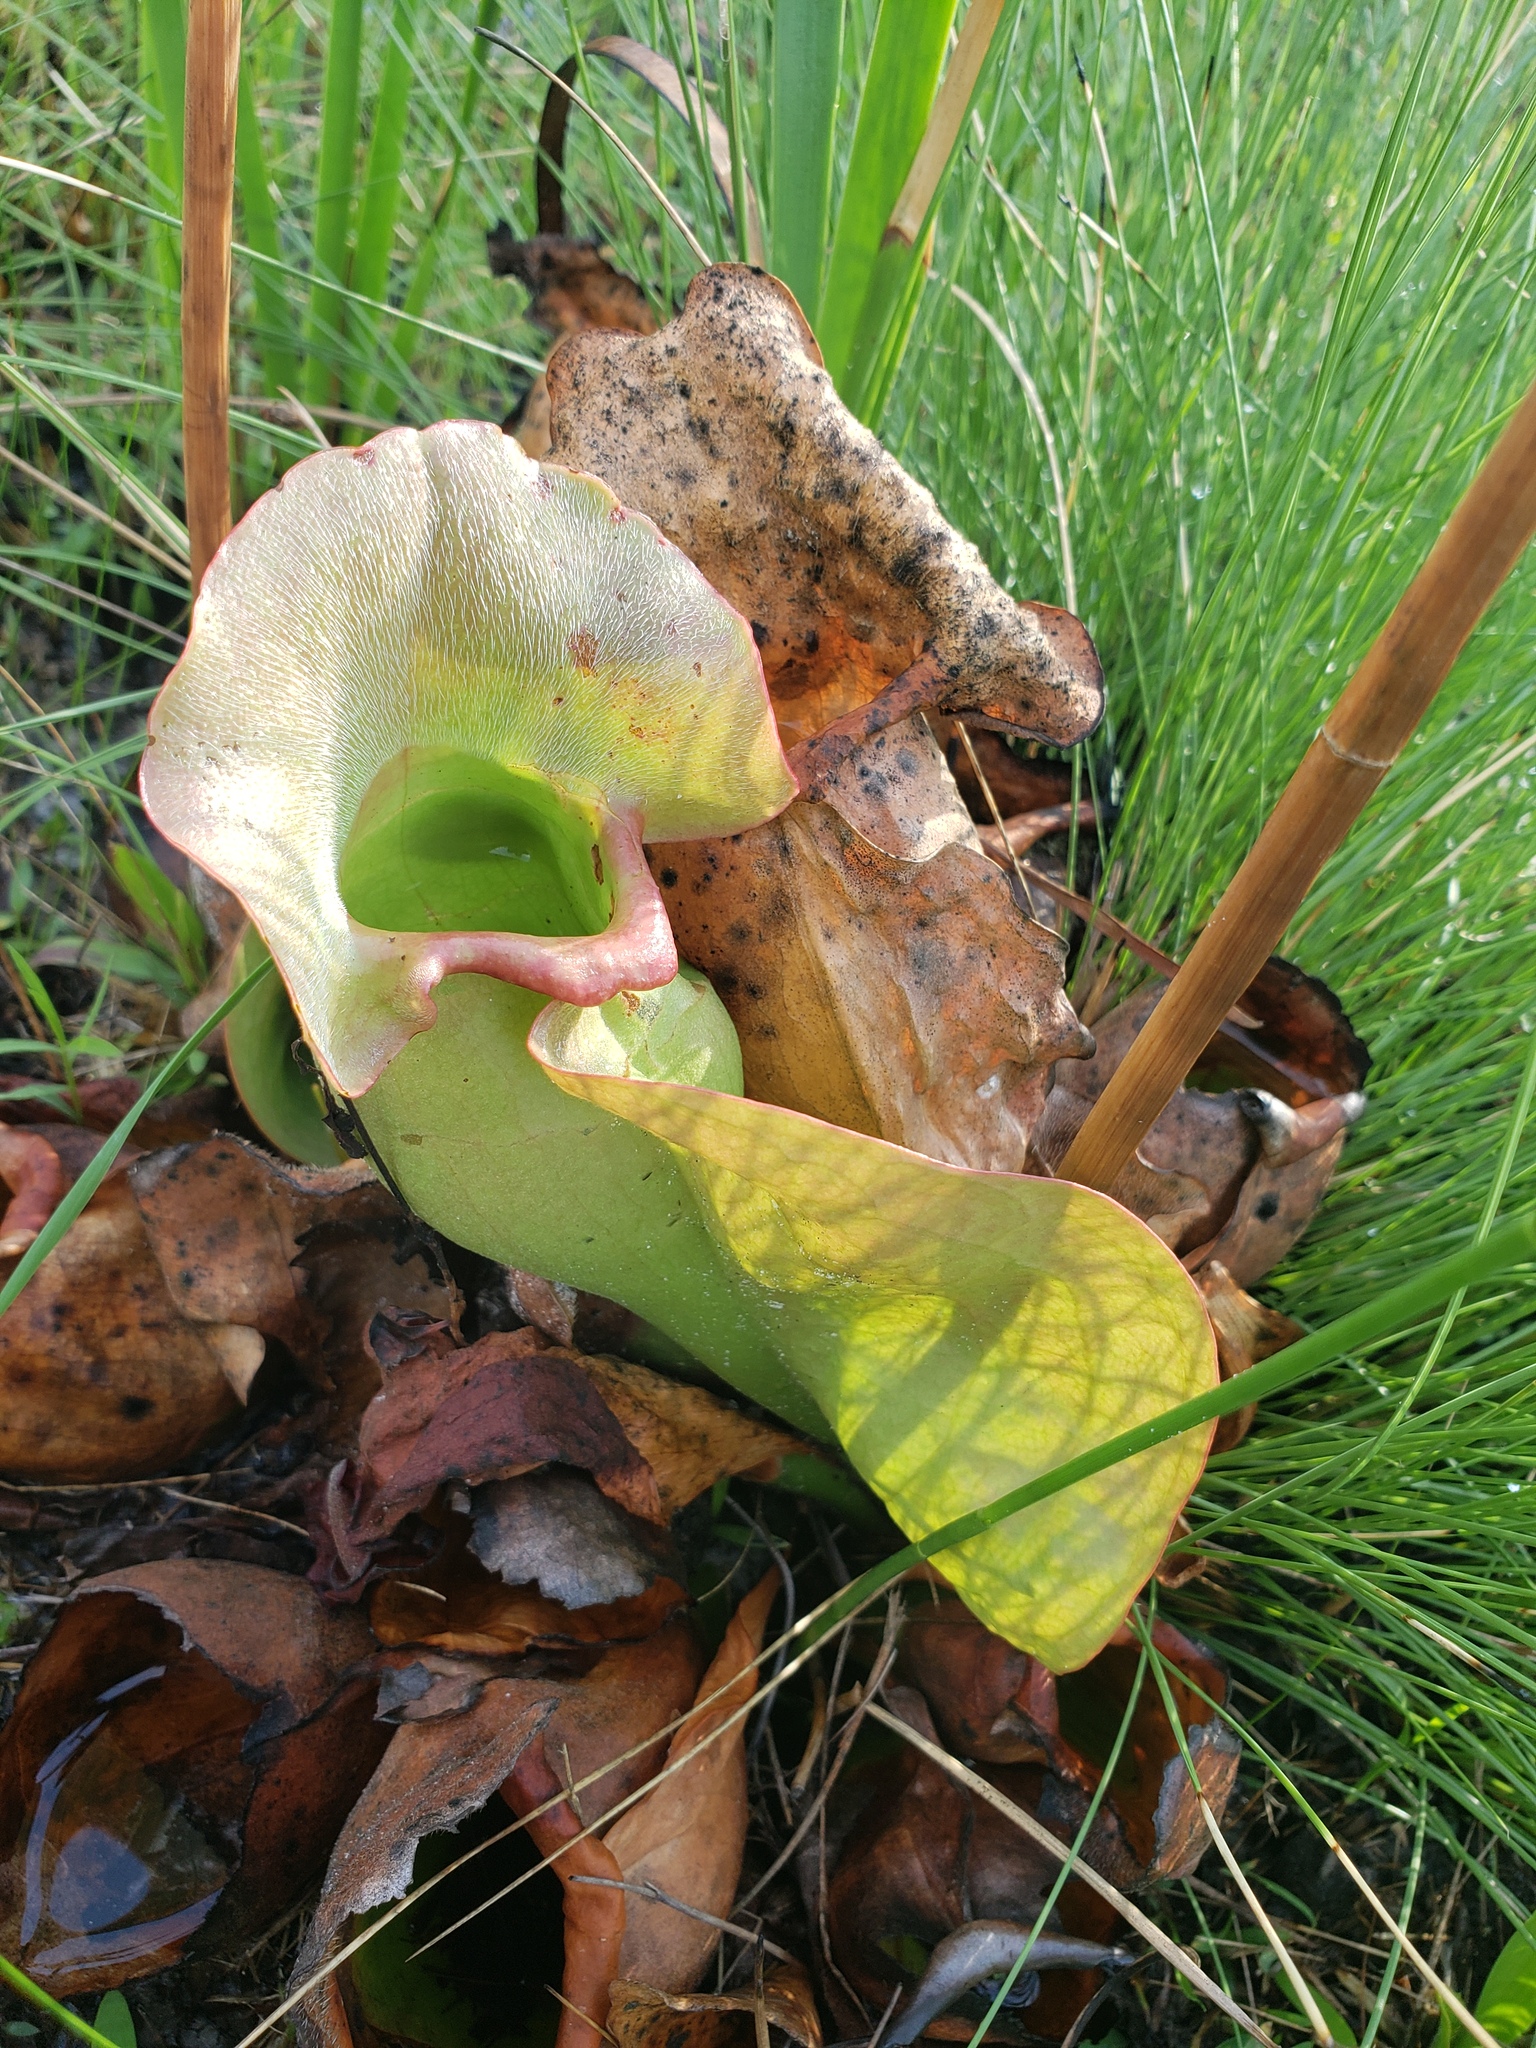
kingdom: Plantae
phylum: Tracheophyta
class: Magnoliopsida
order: Ericales
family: Sarraceniaceae
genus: Sarracenia
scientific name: Sarracenia rosea
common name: Pink pitcherplant
